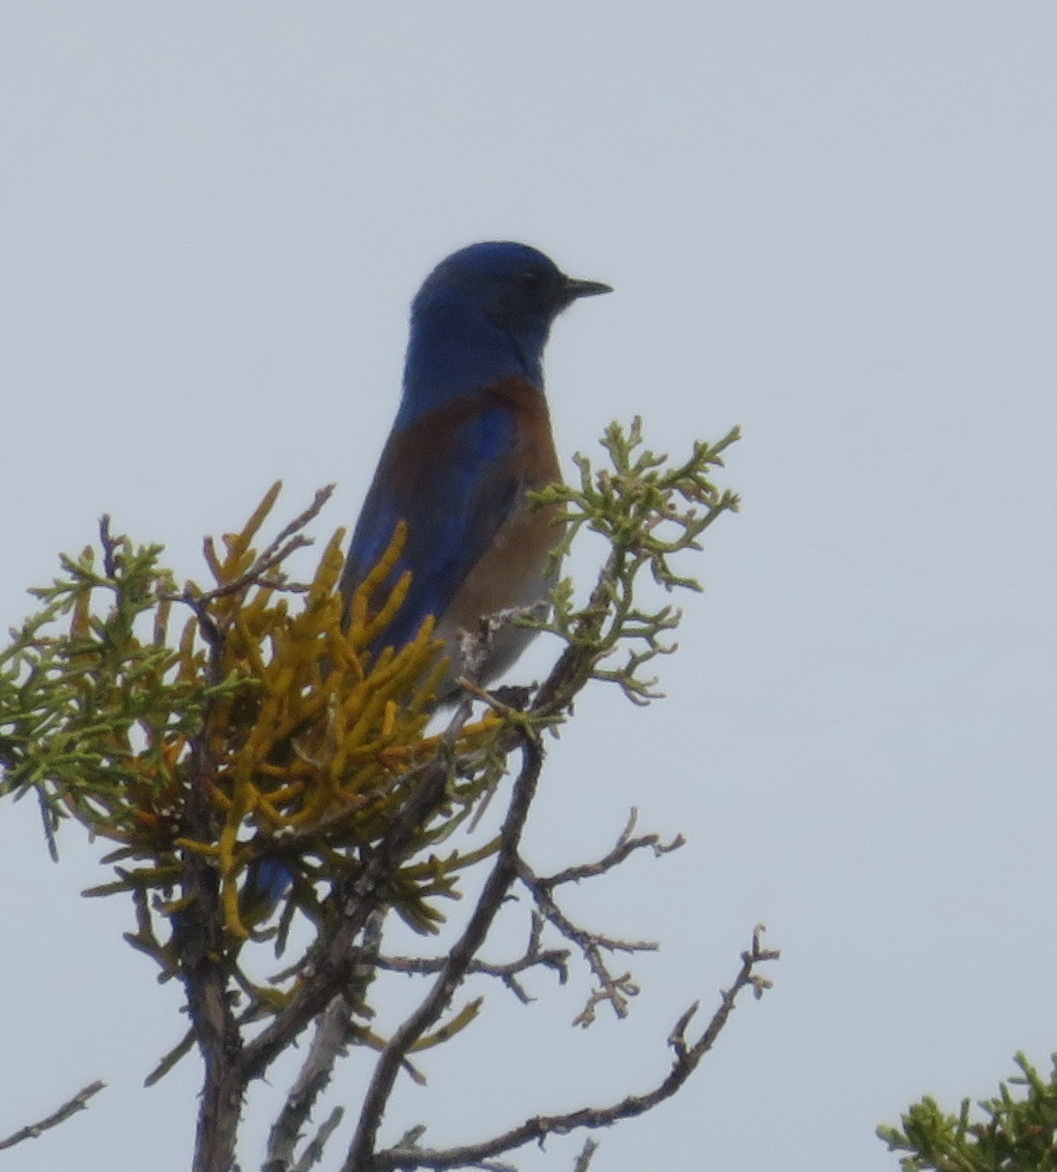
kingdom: Animalia
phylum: Chordata
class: Aves
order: Passeriformes
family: Turdidae
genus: Sialia
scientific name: Sialia mexicana
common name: Western bluebird
